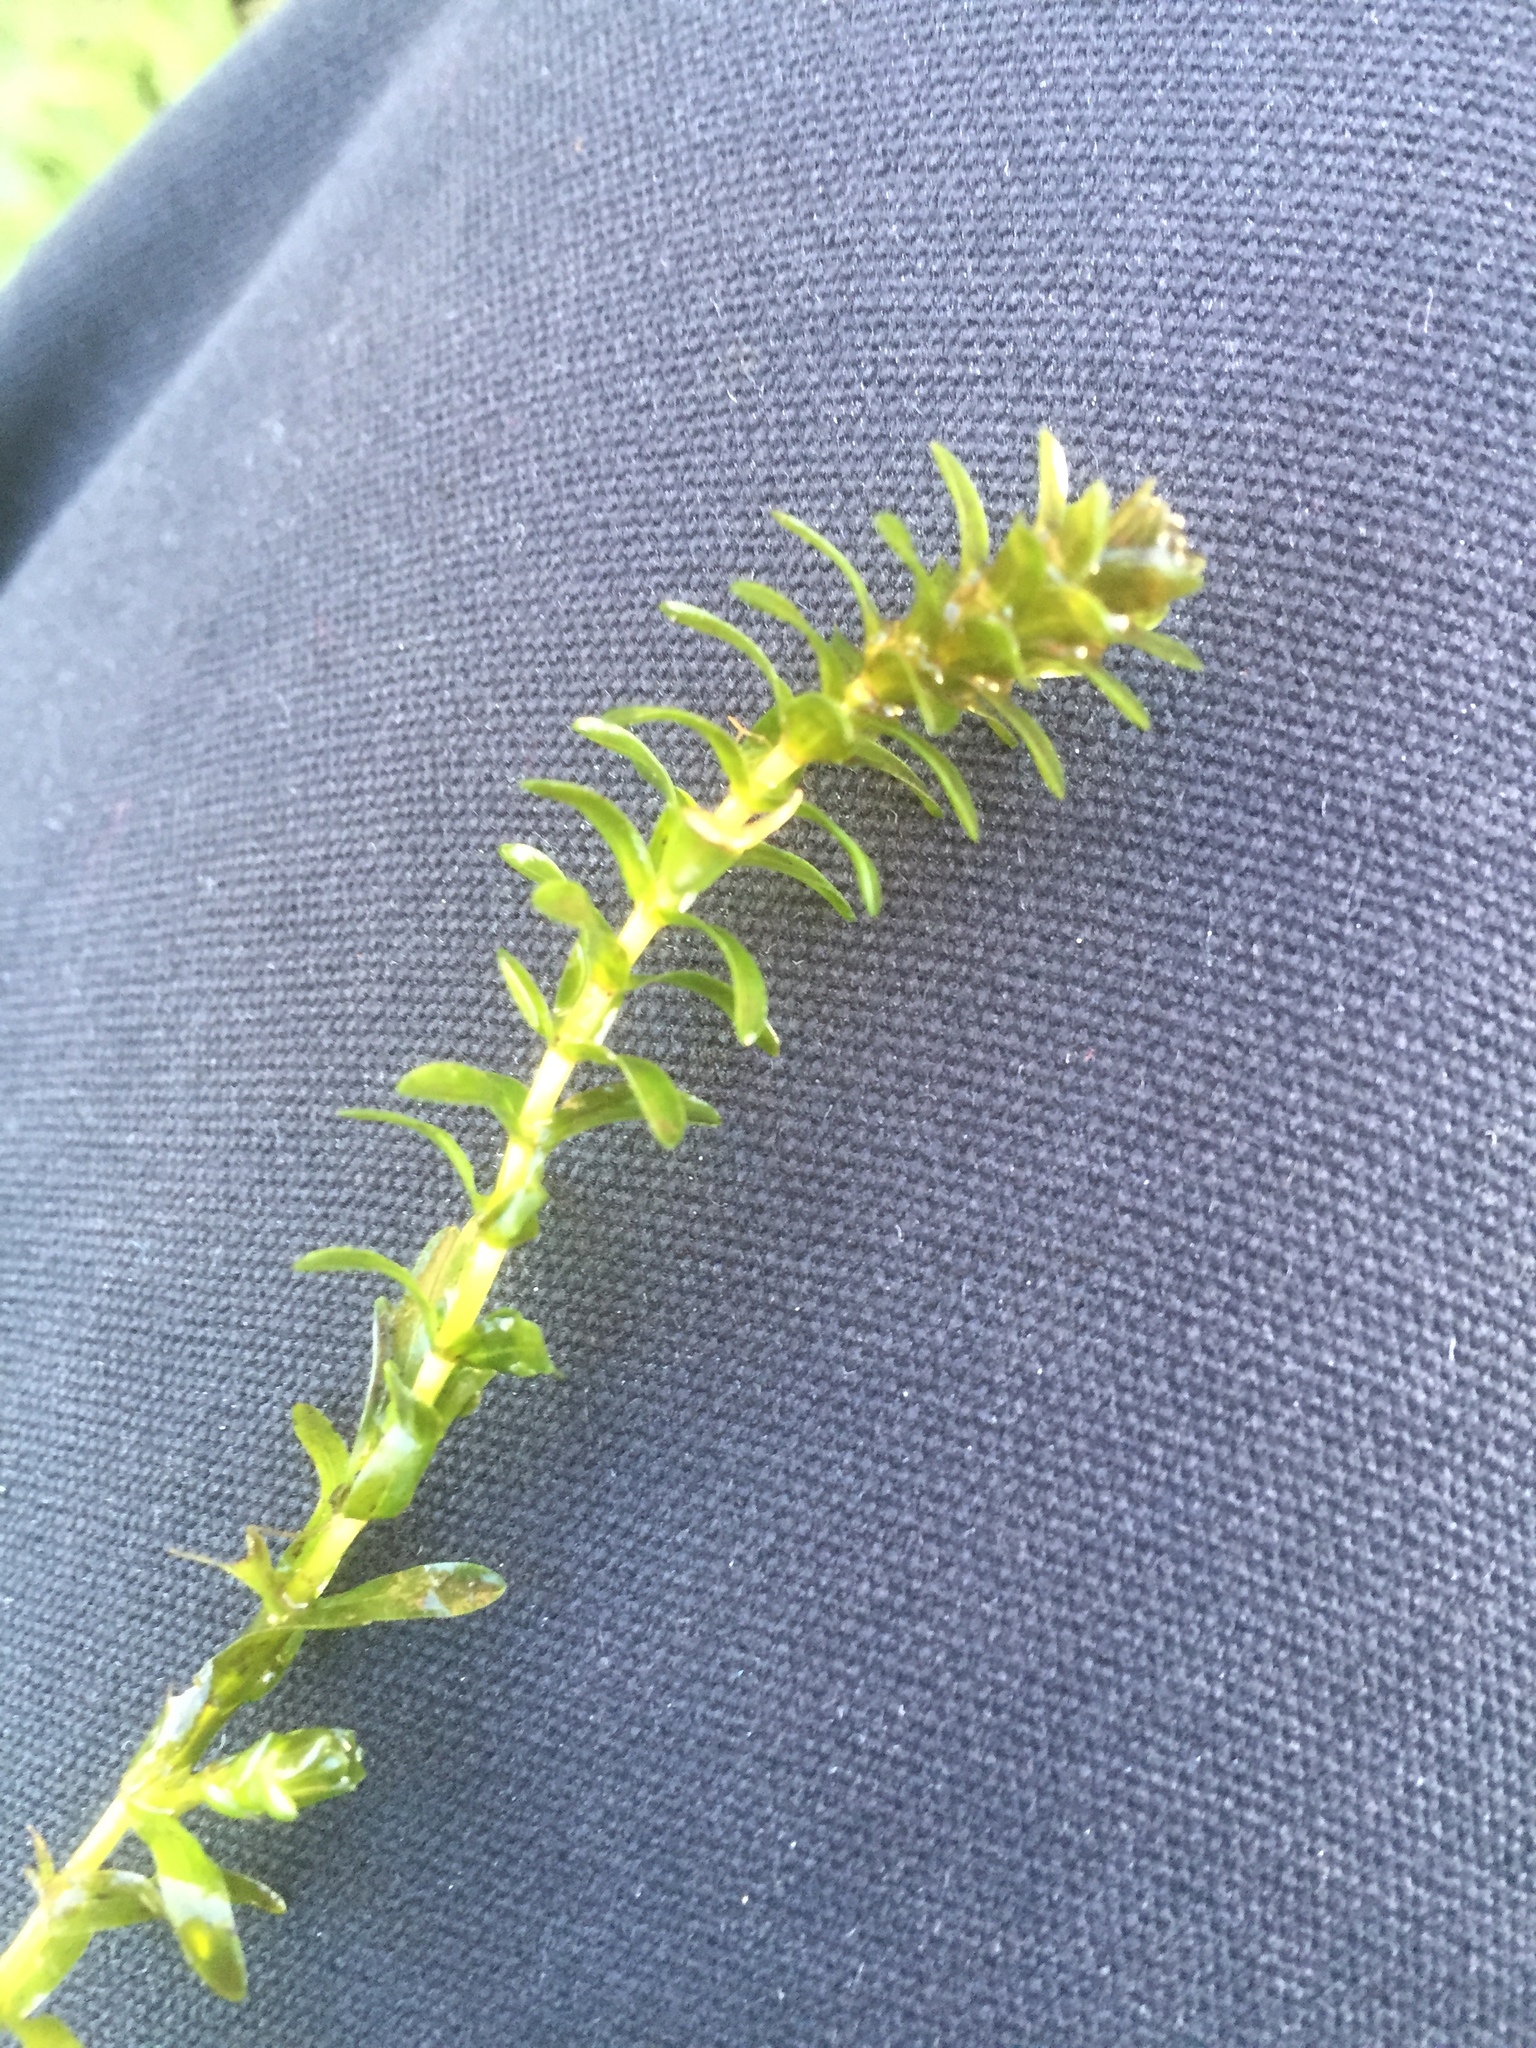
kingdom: Plantae
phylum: Tracheophyta
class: Liliopsida
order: Alismatales
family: Hydrocharitaceae
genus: Elodea
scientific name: Elodea canadensis
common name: Canadian waterweed
